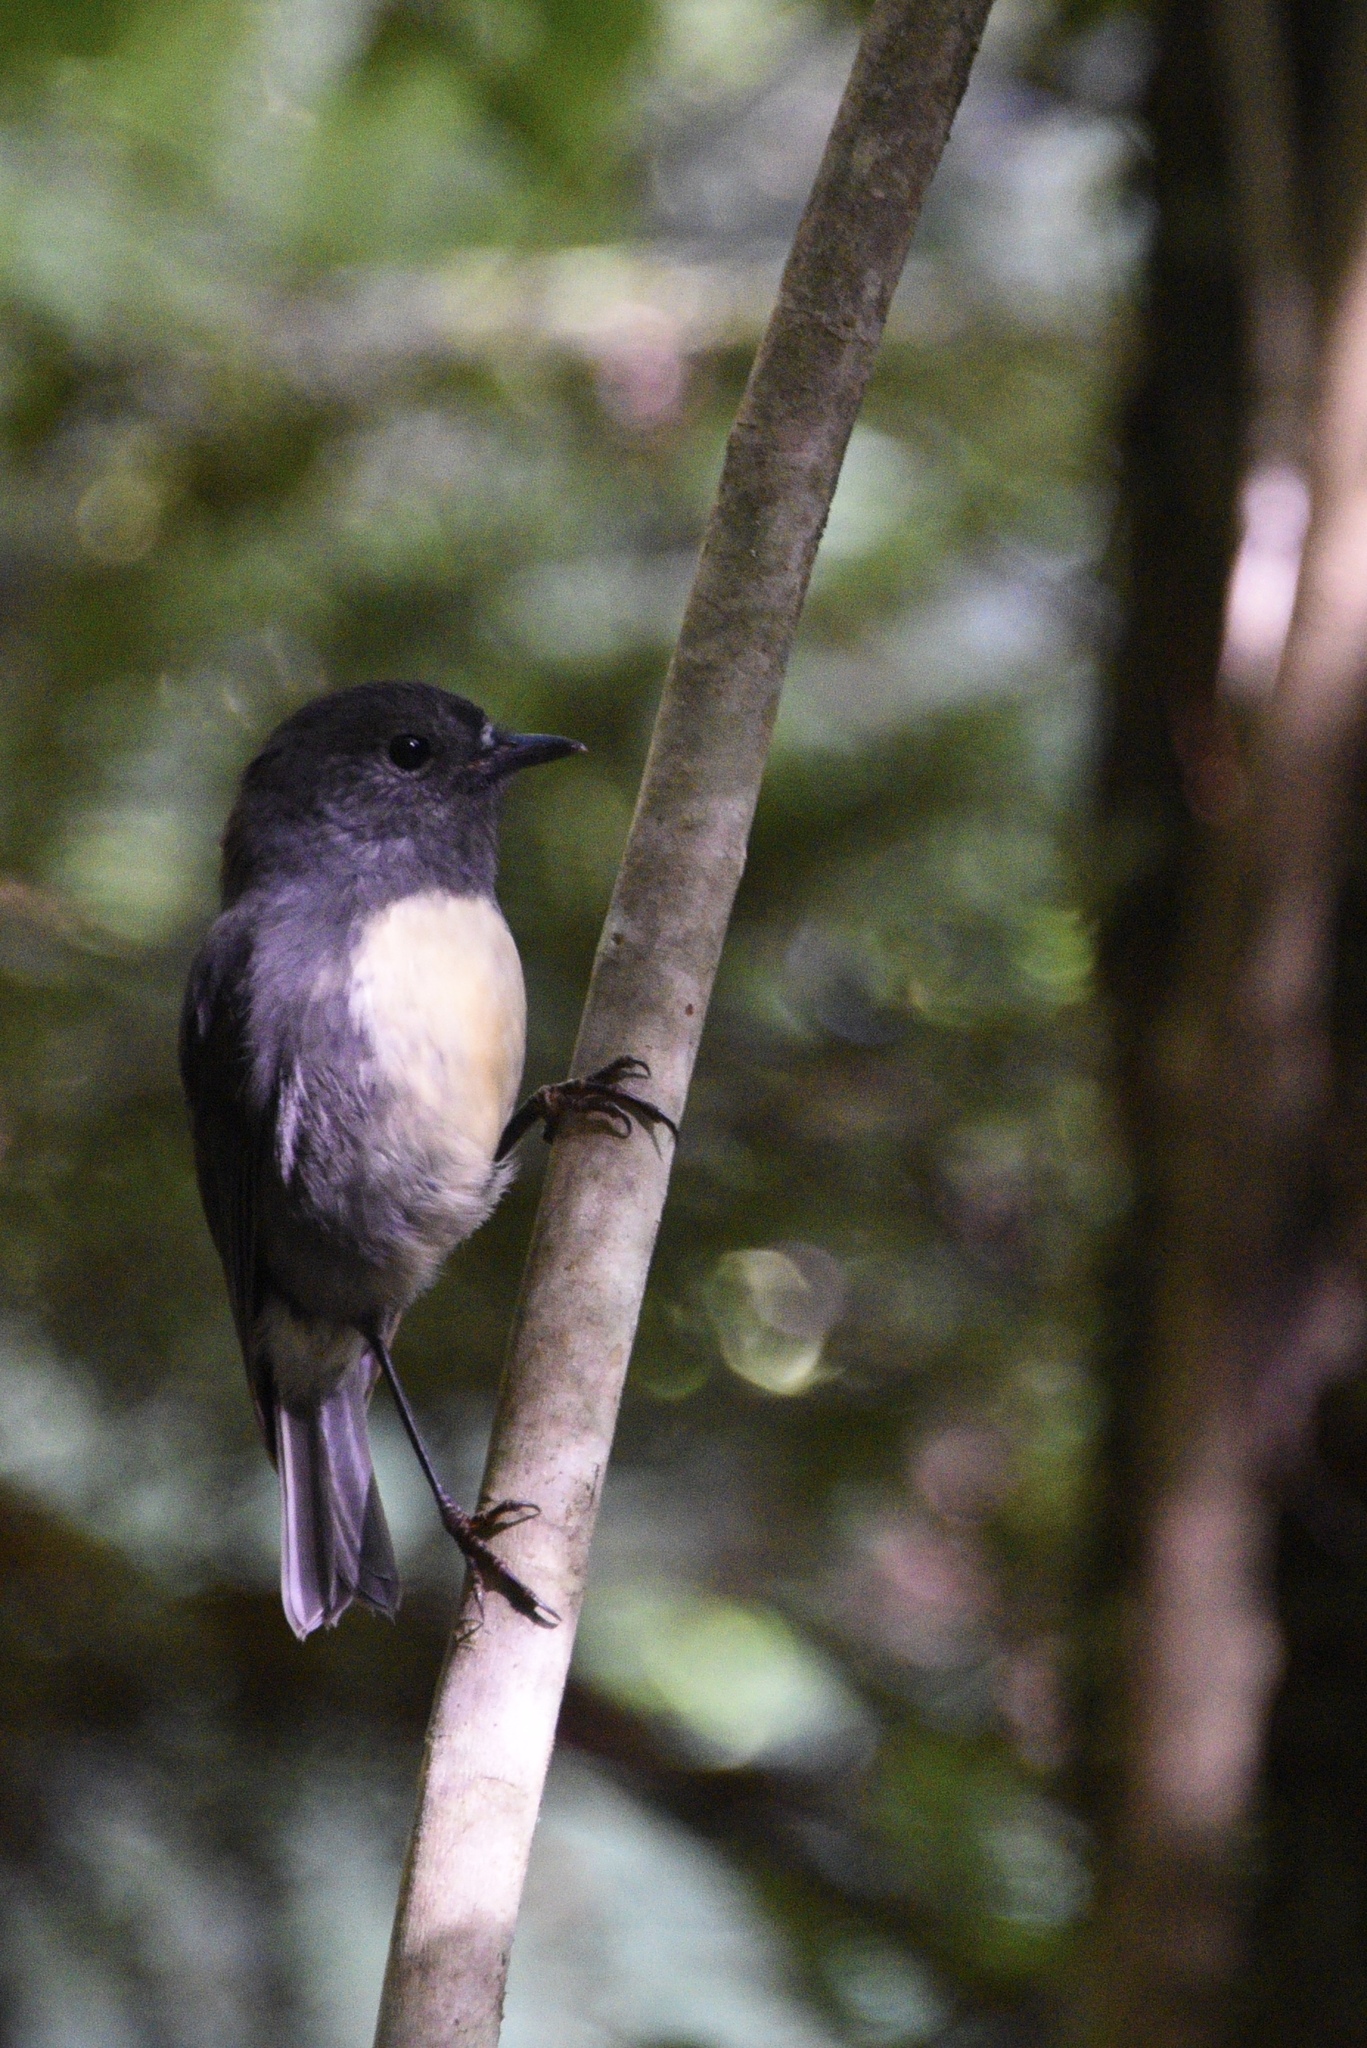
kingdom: Animalia
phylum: Chordata
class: Aves
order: Passeriformes
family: Petroicidae
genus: Petroica
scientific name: Petroica australis
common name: New zealand robin
